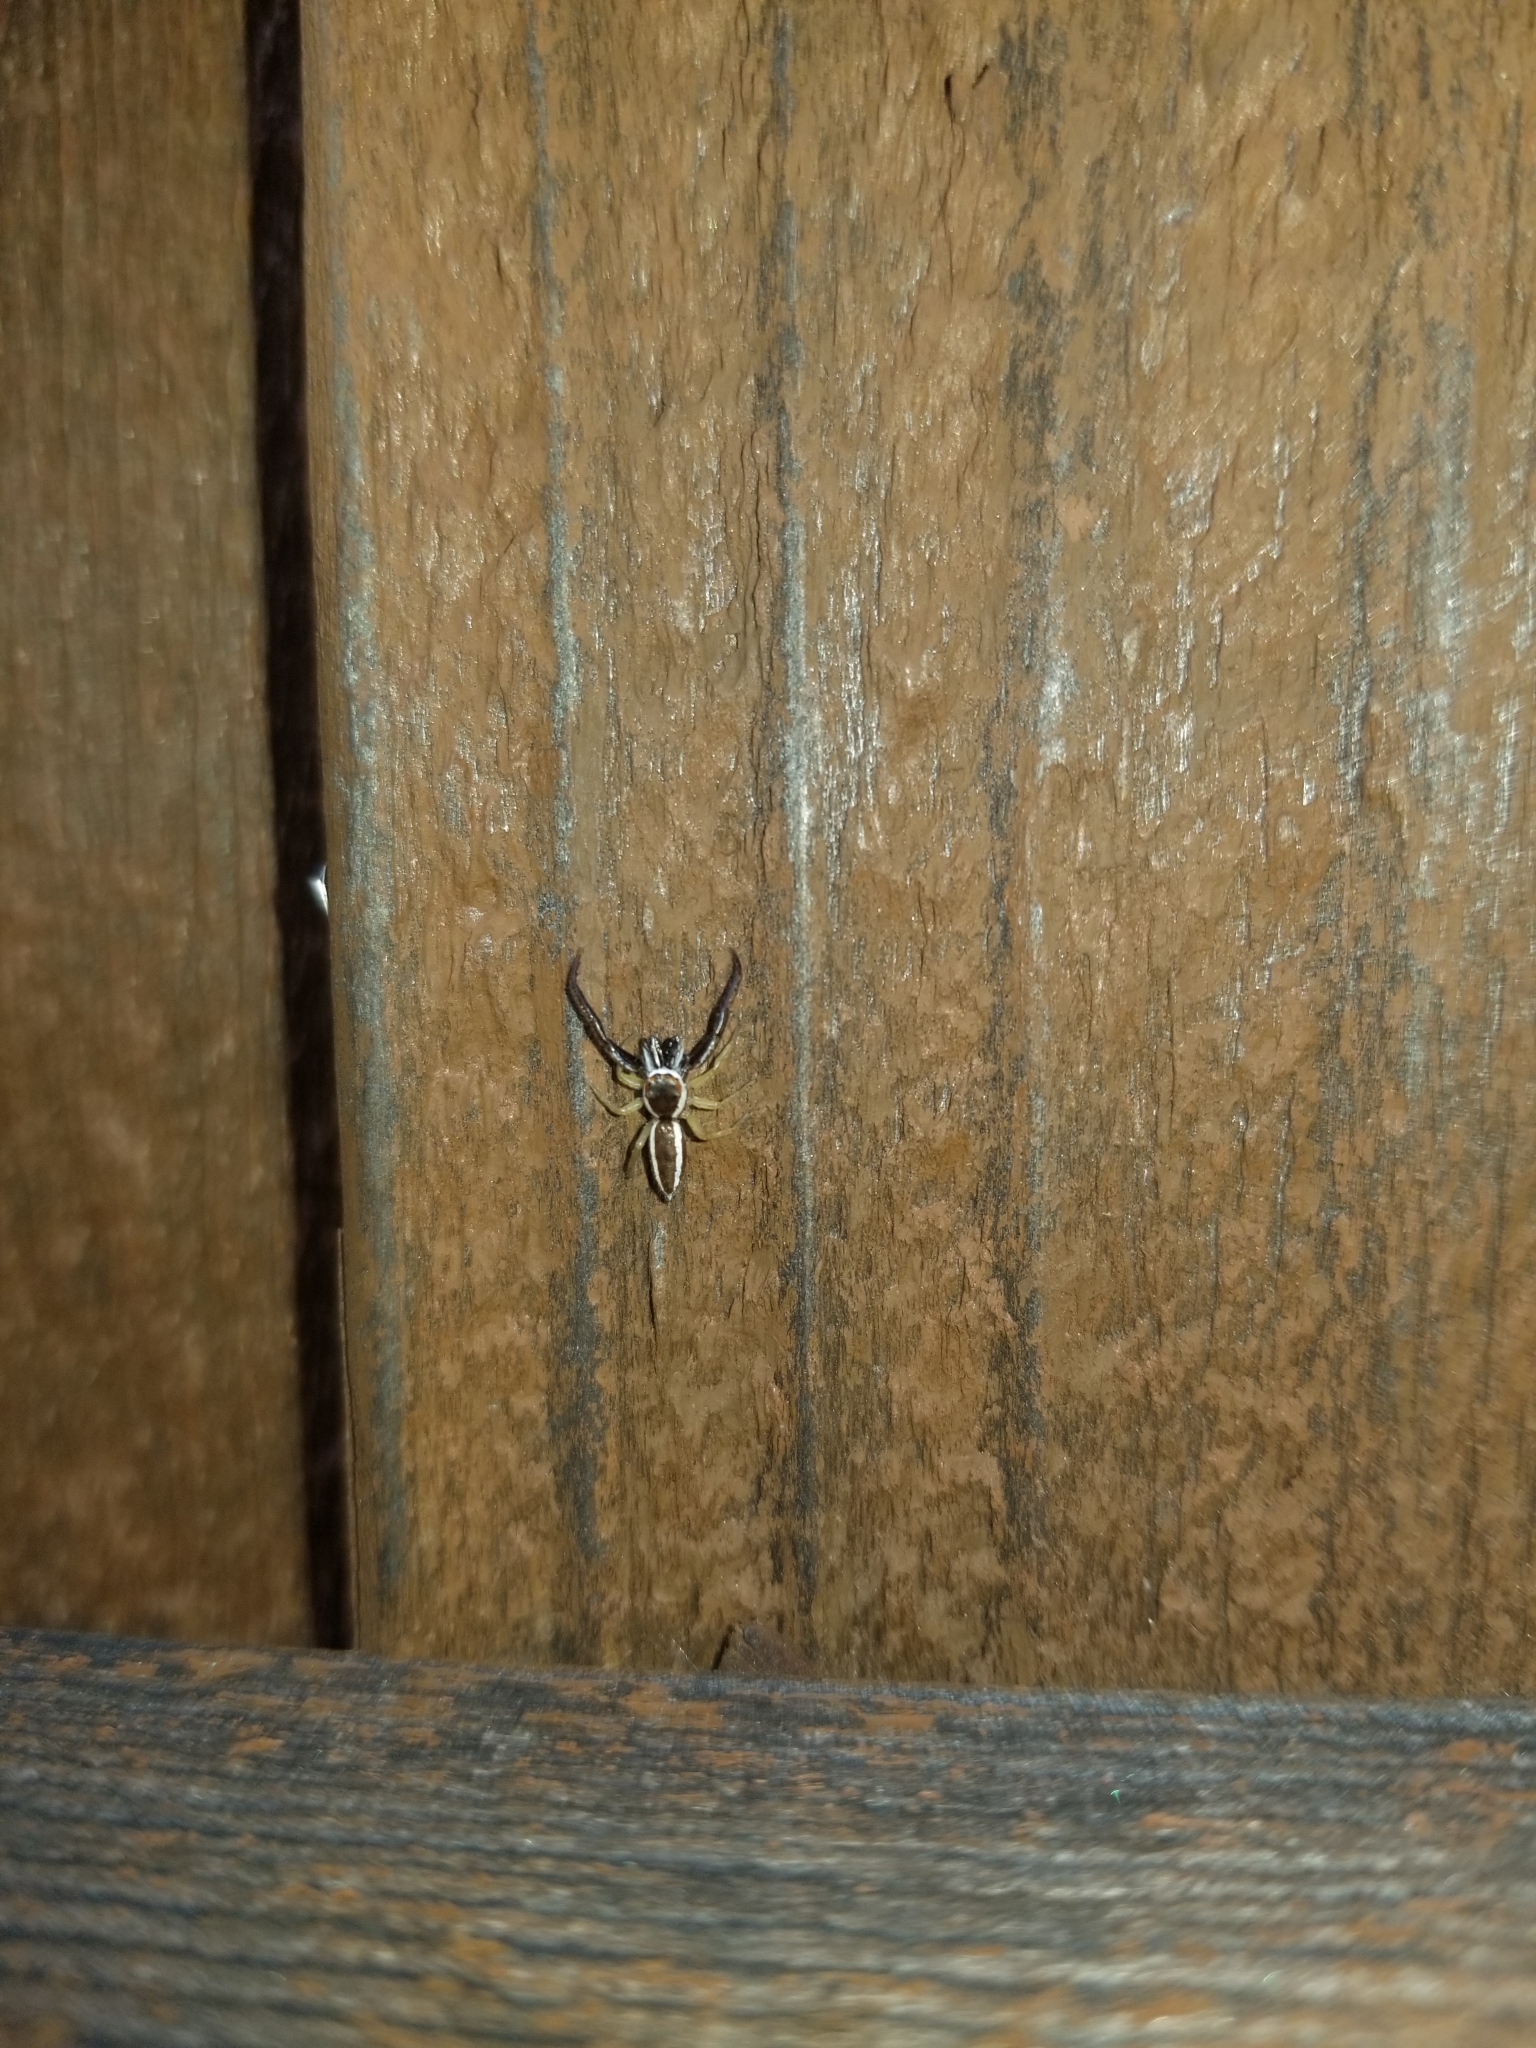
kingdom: Animalia
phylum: Arthropoda
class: Arachnida
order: Araneae
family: Salticidae
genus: Hentzia
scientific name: Hentzia palmarum
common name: Common hentz jumping spider
